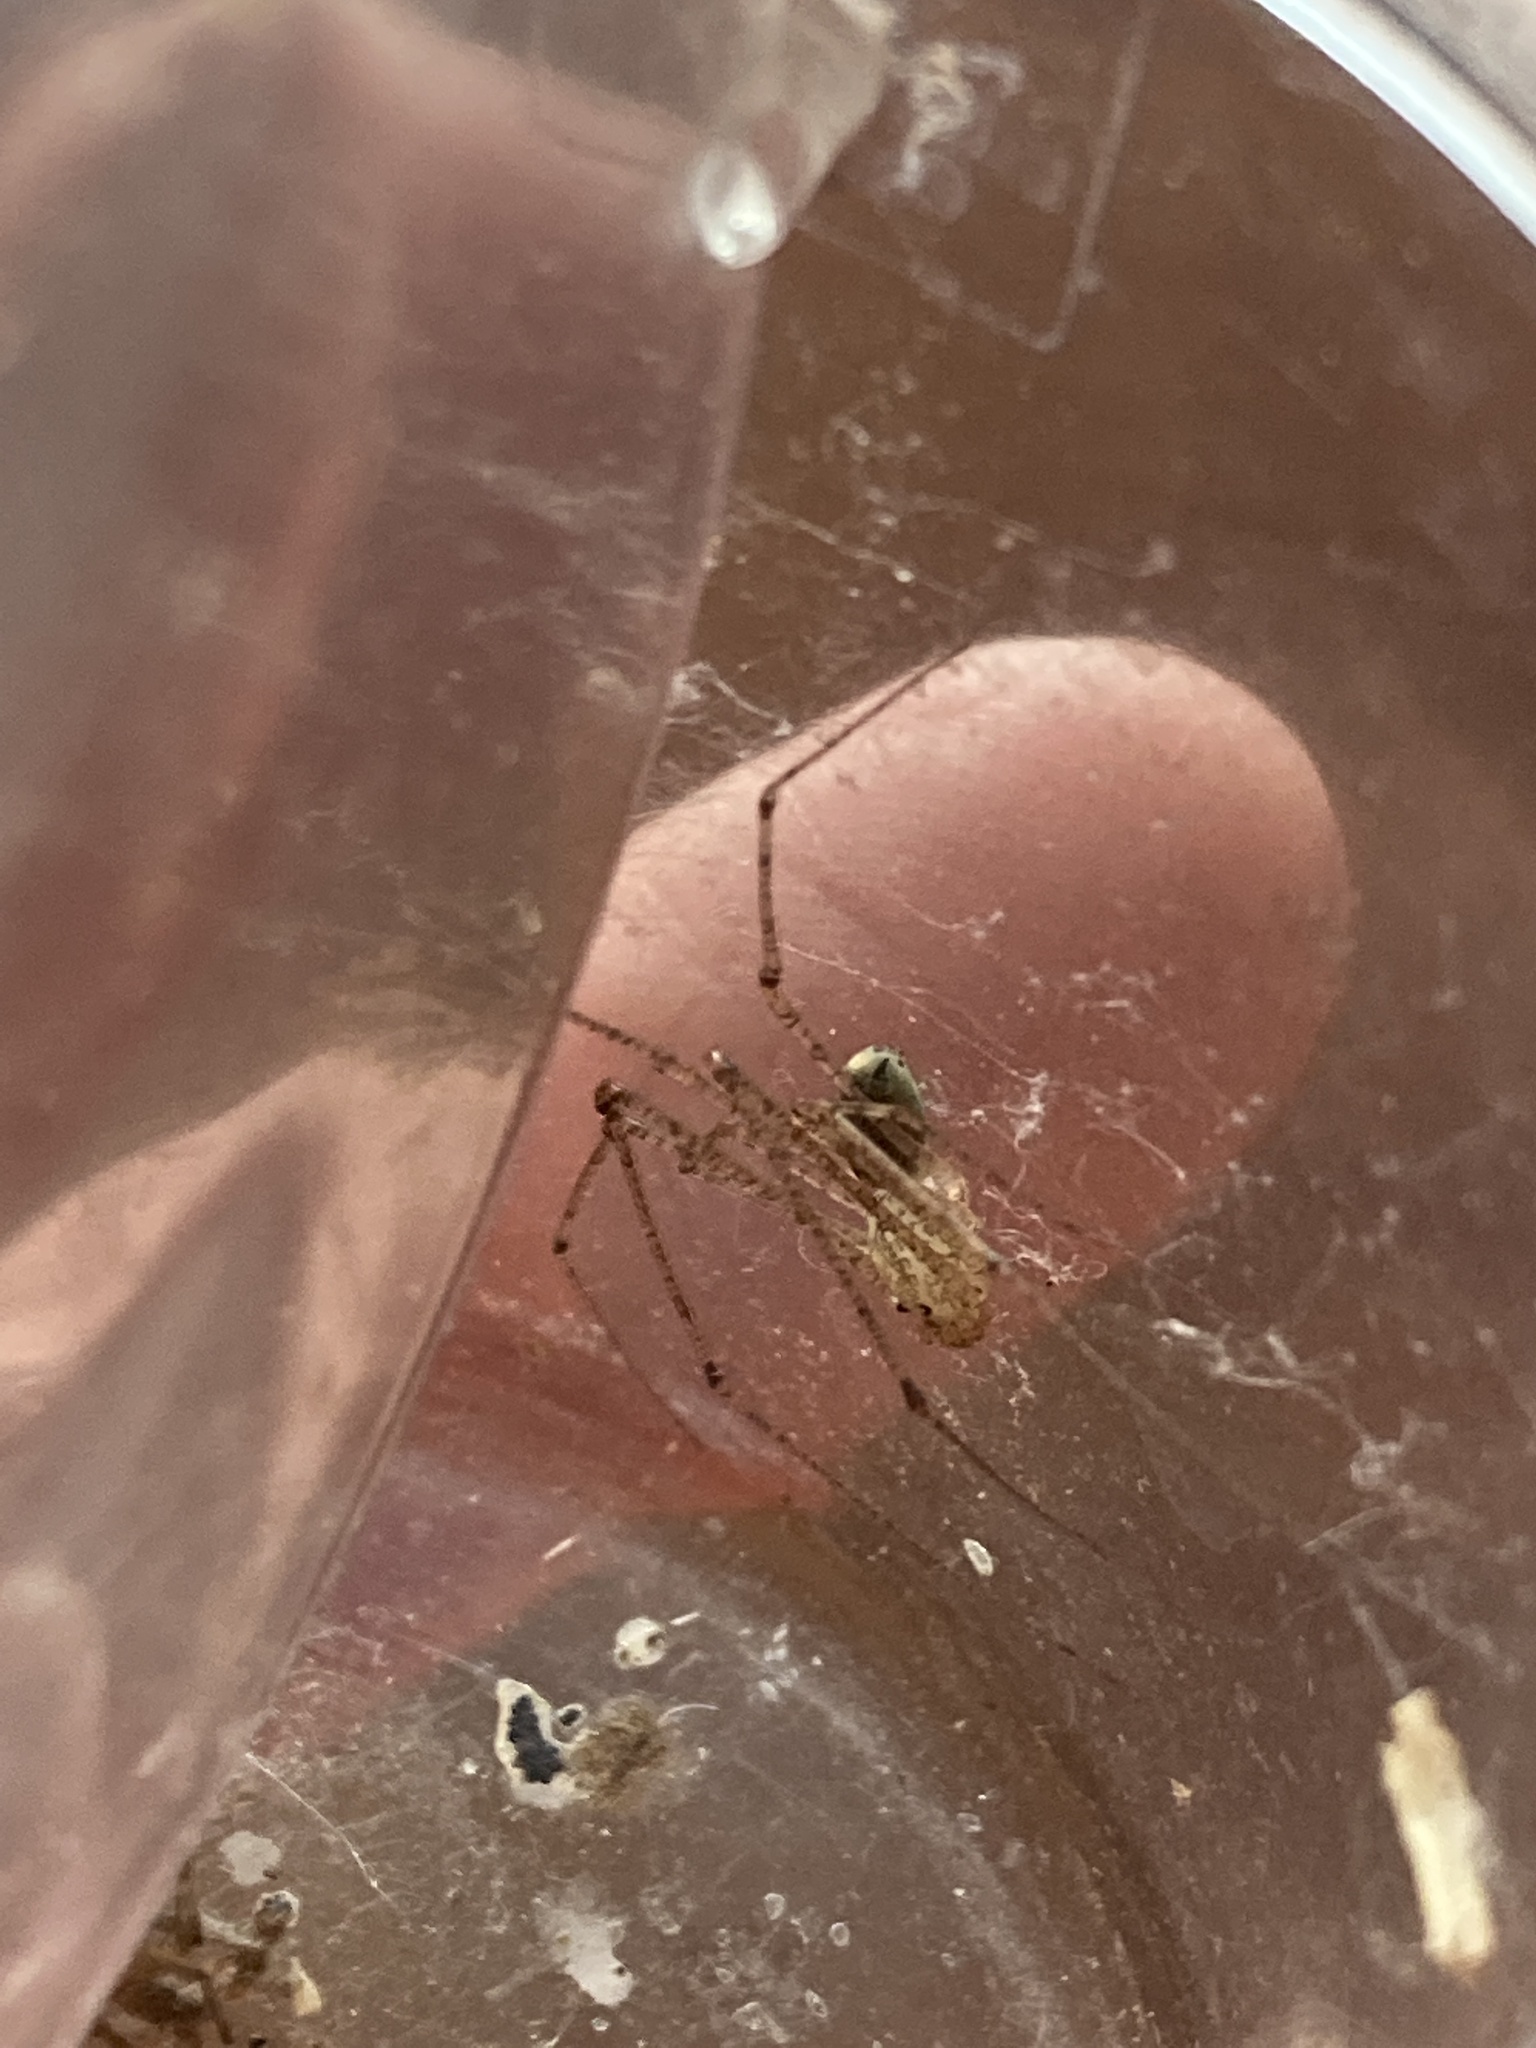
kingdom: Animalia
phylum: Arthropoda
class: Arachnida
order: Araneae
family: Scytodidae
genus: Scytodes
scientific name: Scytodes atlacoya
